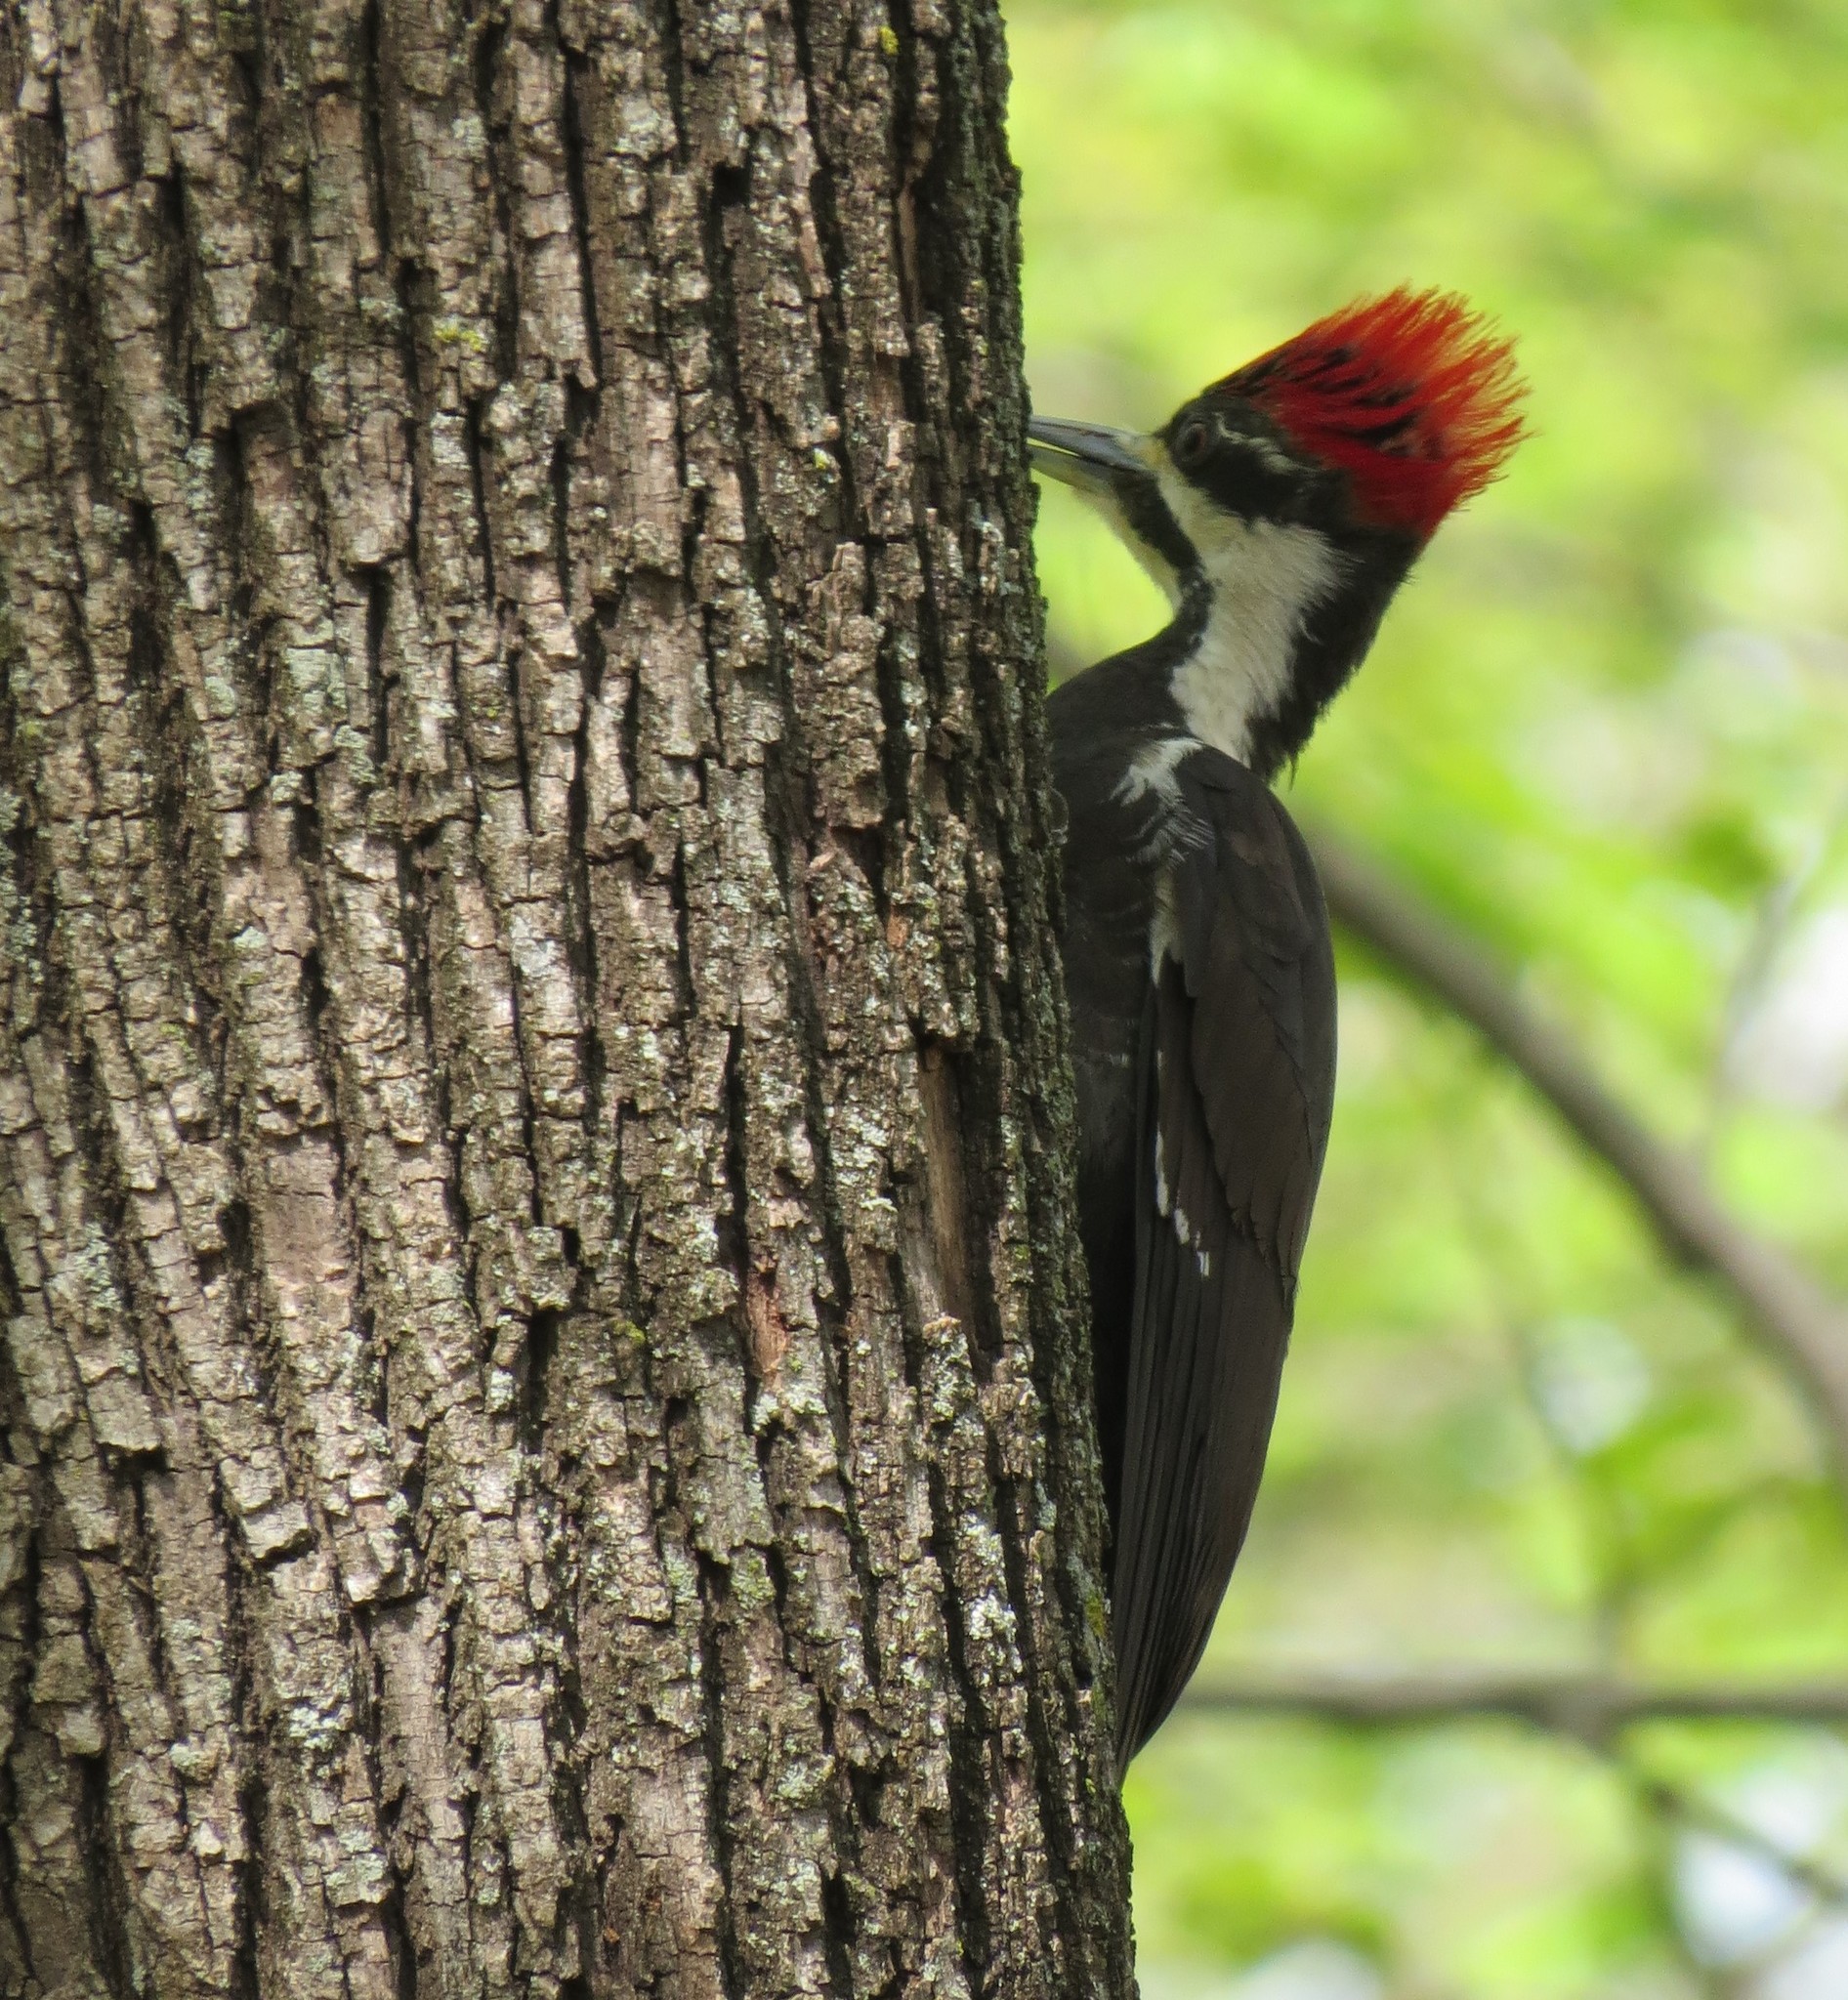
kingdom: Animalia
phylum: Chordata
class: Aves
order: Piciformes
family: Picidae
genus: Dryocopus
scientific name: Dryocopus pileatus
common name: Pileated woodpecker
